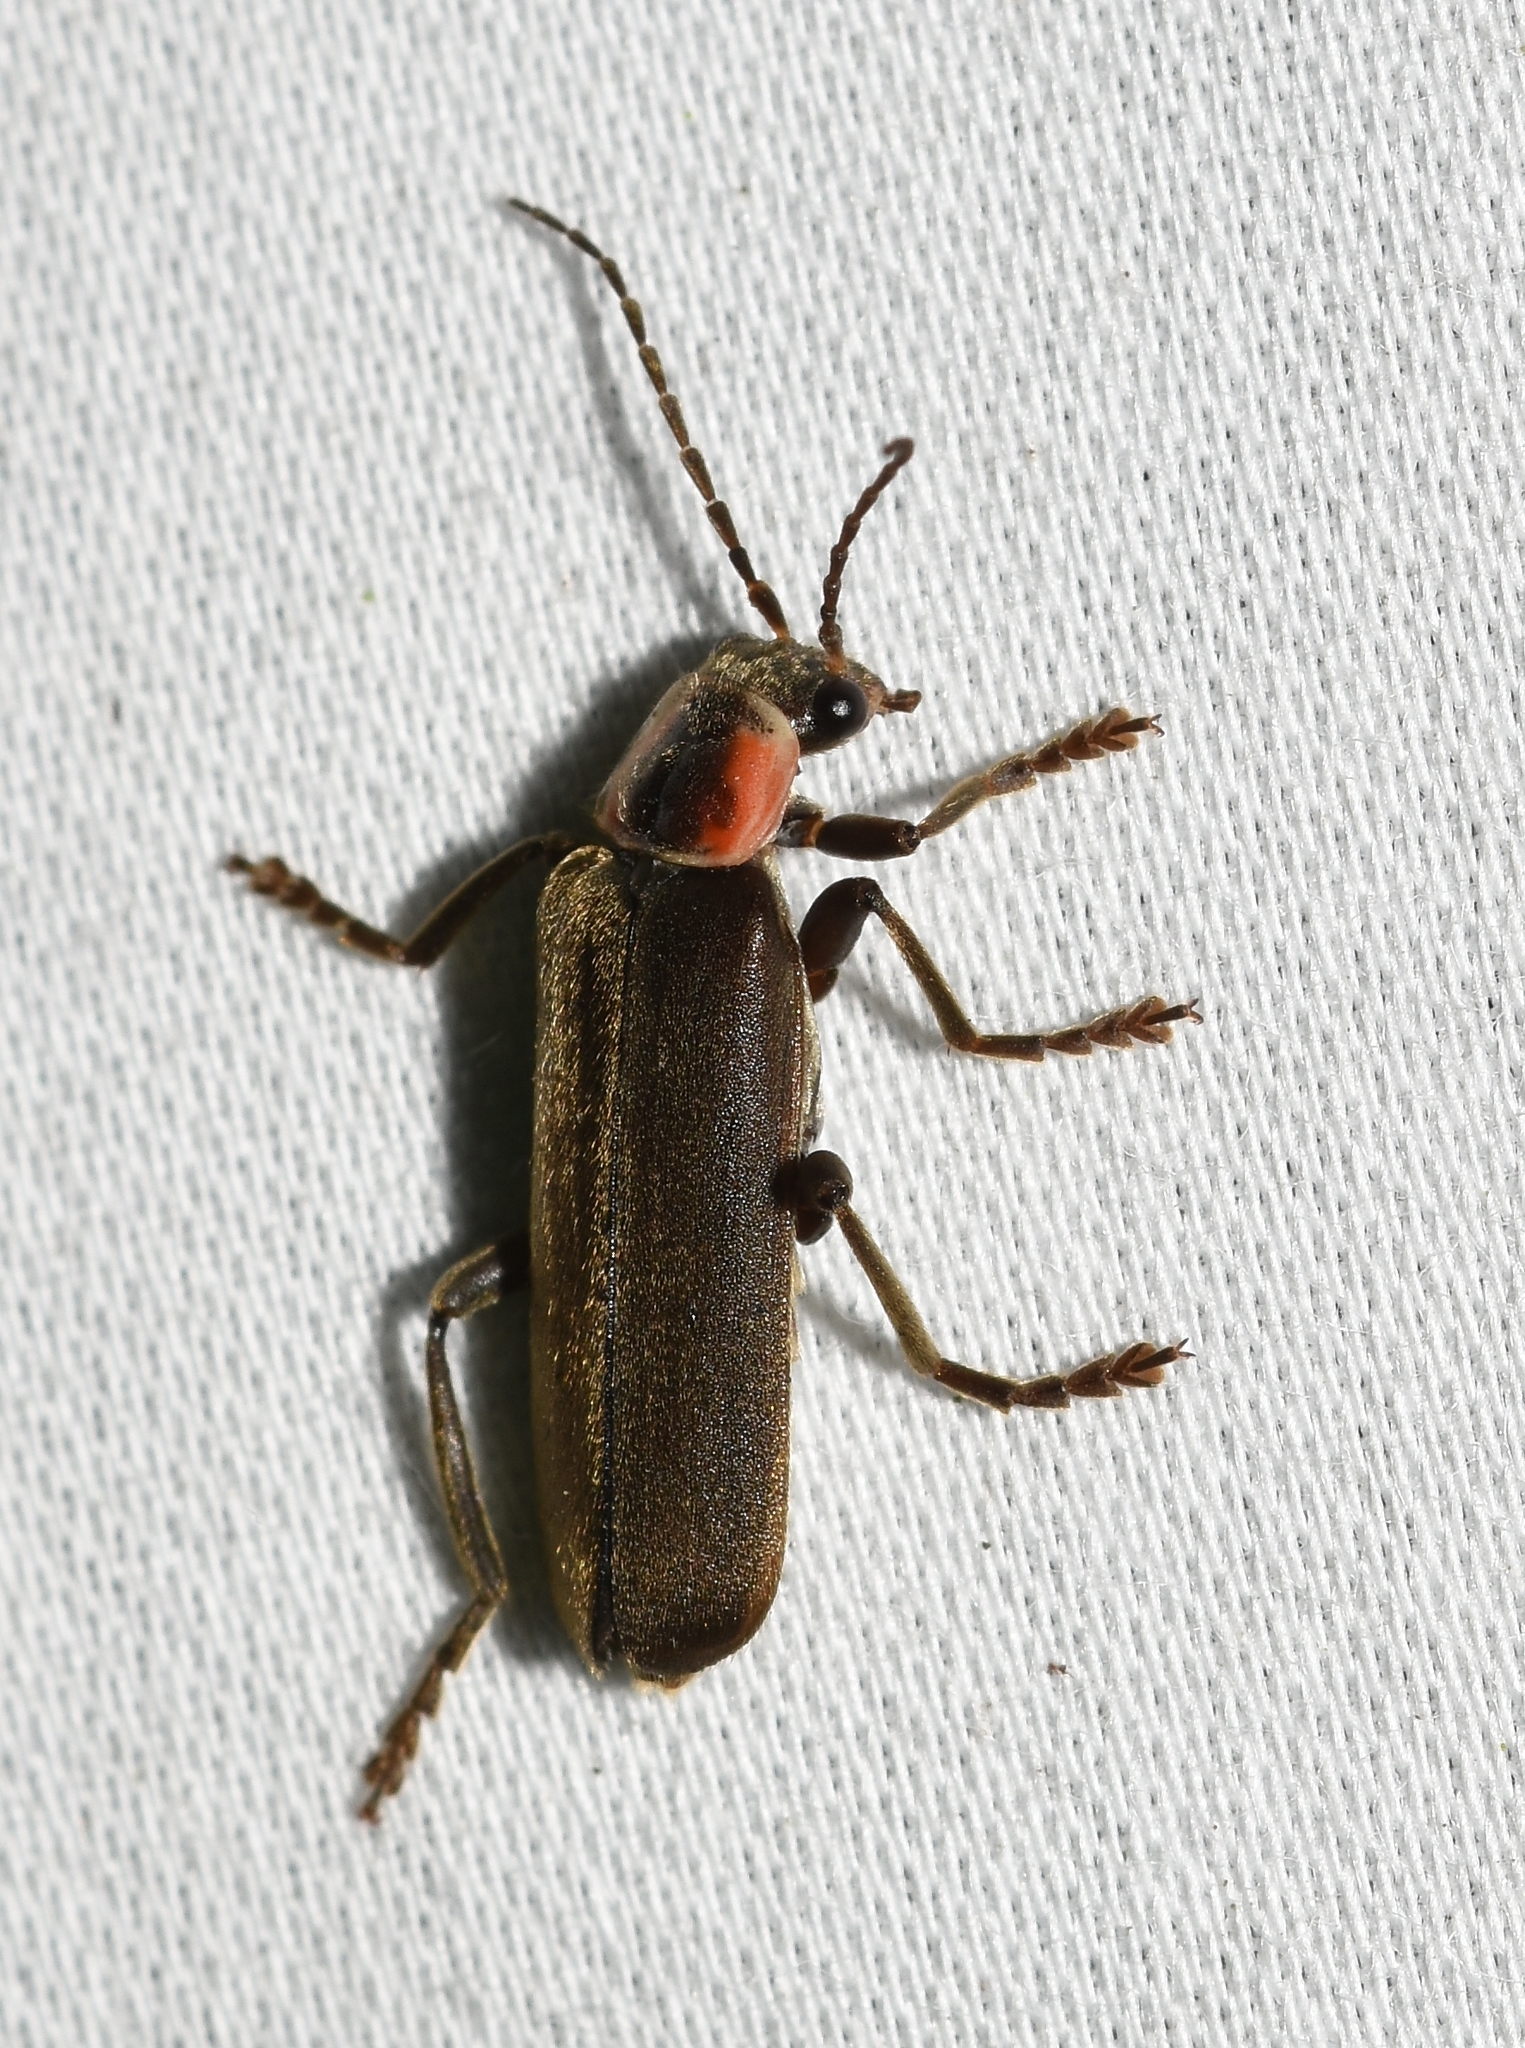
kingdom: Animalia
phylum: Arthropoda
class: Insecta
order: Coleoptera
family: Cantharidae
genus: Rhaxonycha
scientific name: Rhaxonycha bilobata
